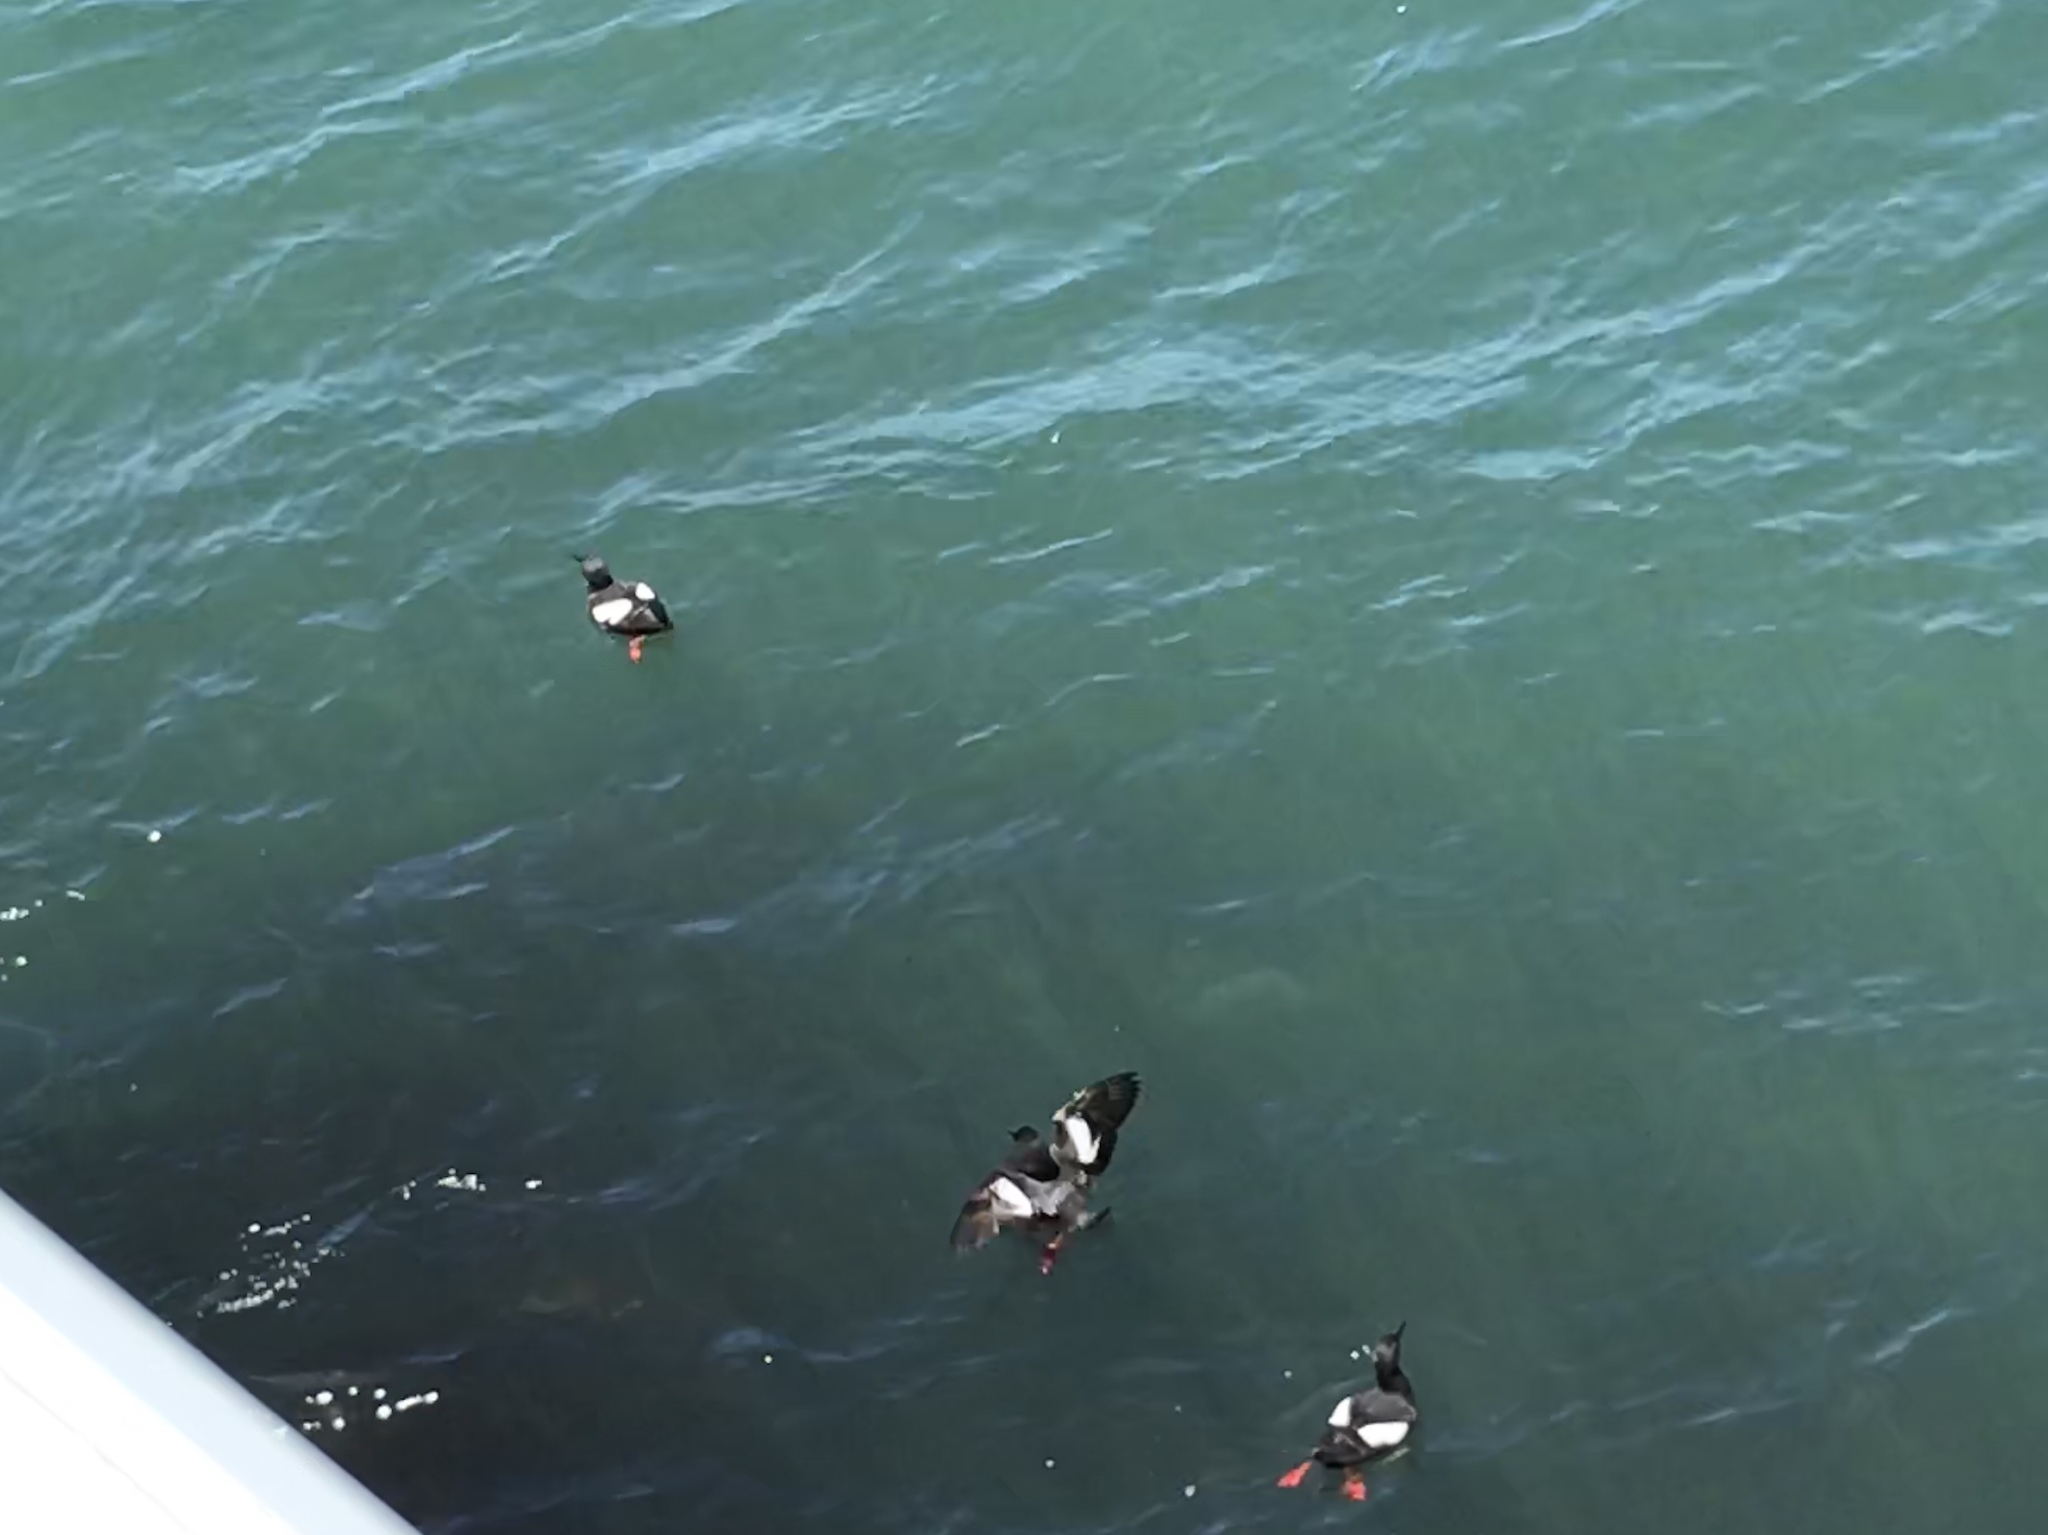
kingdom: Animalia
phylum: Chordata
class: Aves
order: Charadriiformes
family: Alcidae
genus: Cepphus
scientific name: Cepphus columba
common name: Pigeon guillemot
